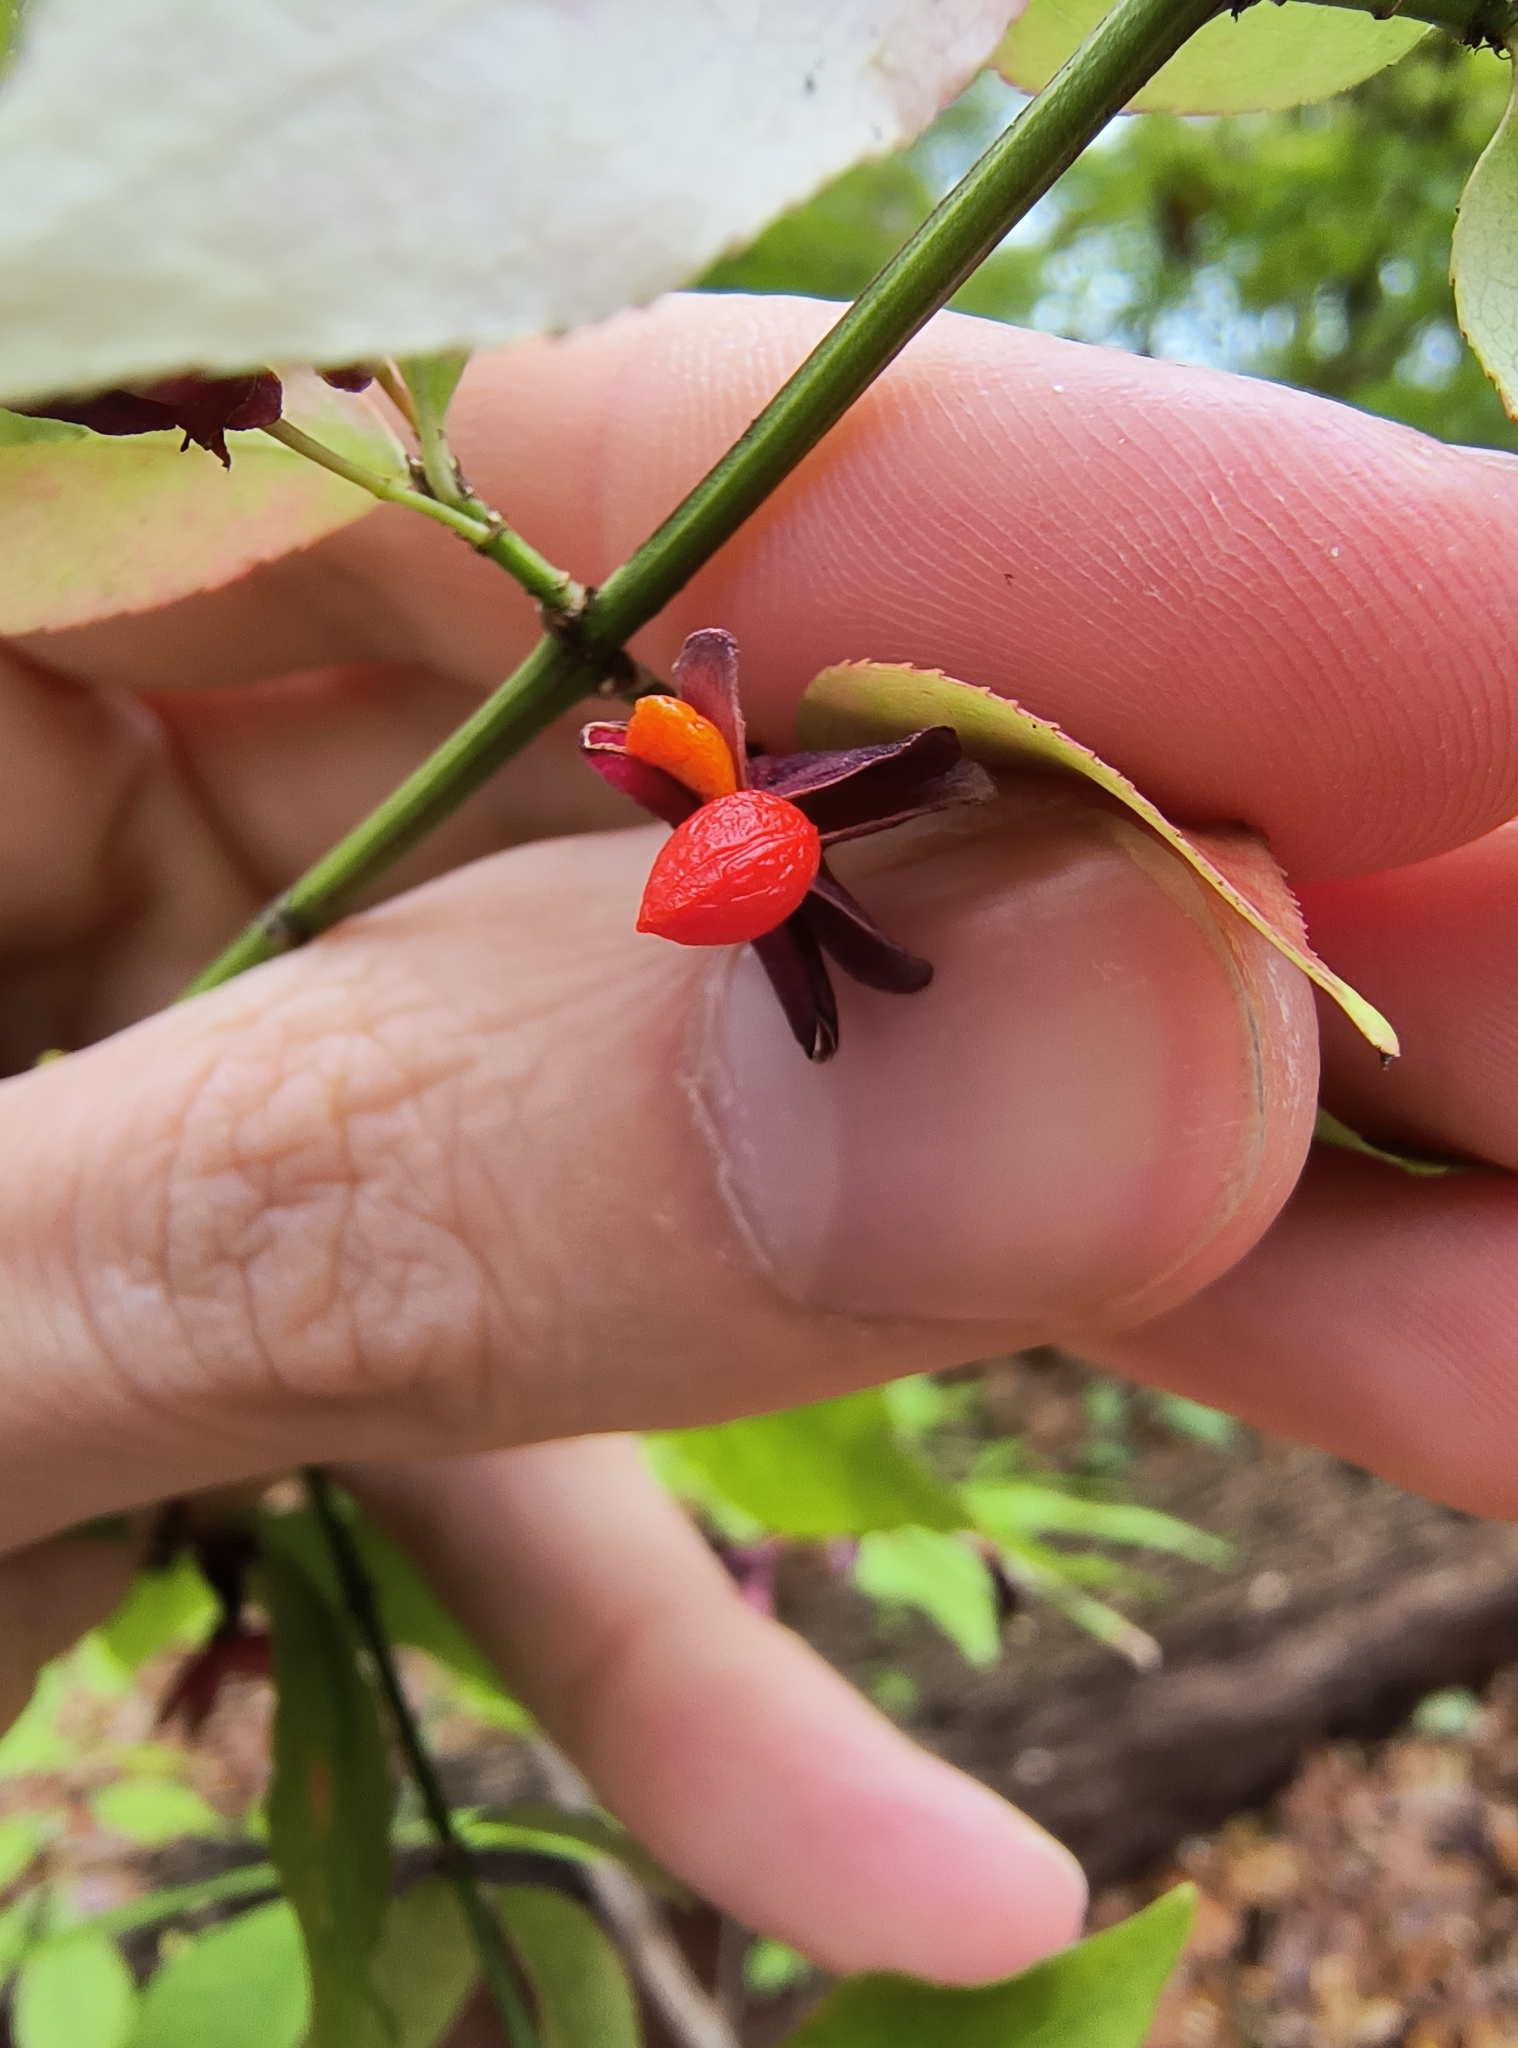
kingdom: Plantae
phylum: Tracheophyta
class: Magnoliopsida
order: Celastrales
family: Celastraceae
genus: Euonymus
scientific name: Euonymus alatus
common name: Winged euonymus
